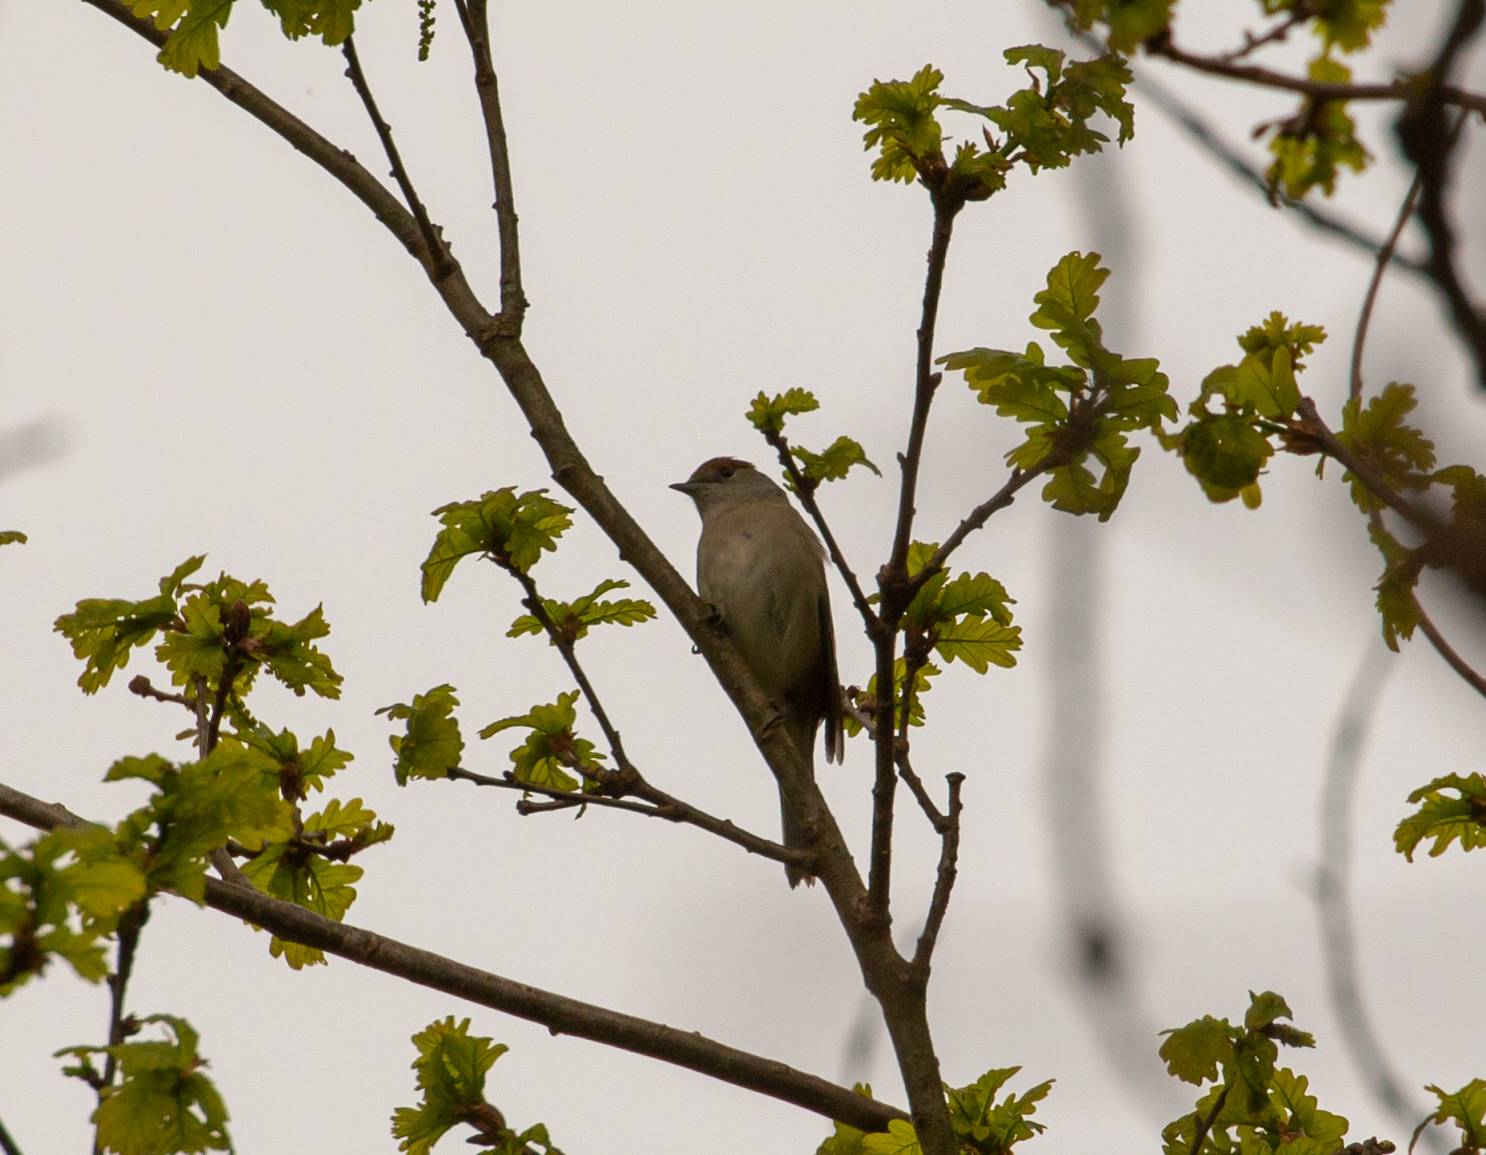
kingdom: Animalia
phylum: Chordata
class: Aves
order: Passeriformes
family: Sylviidae
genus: Sylvia
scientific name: Sylvia atricapilla
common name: Eurasian blackcap
